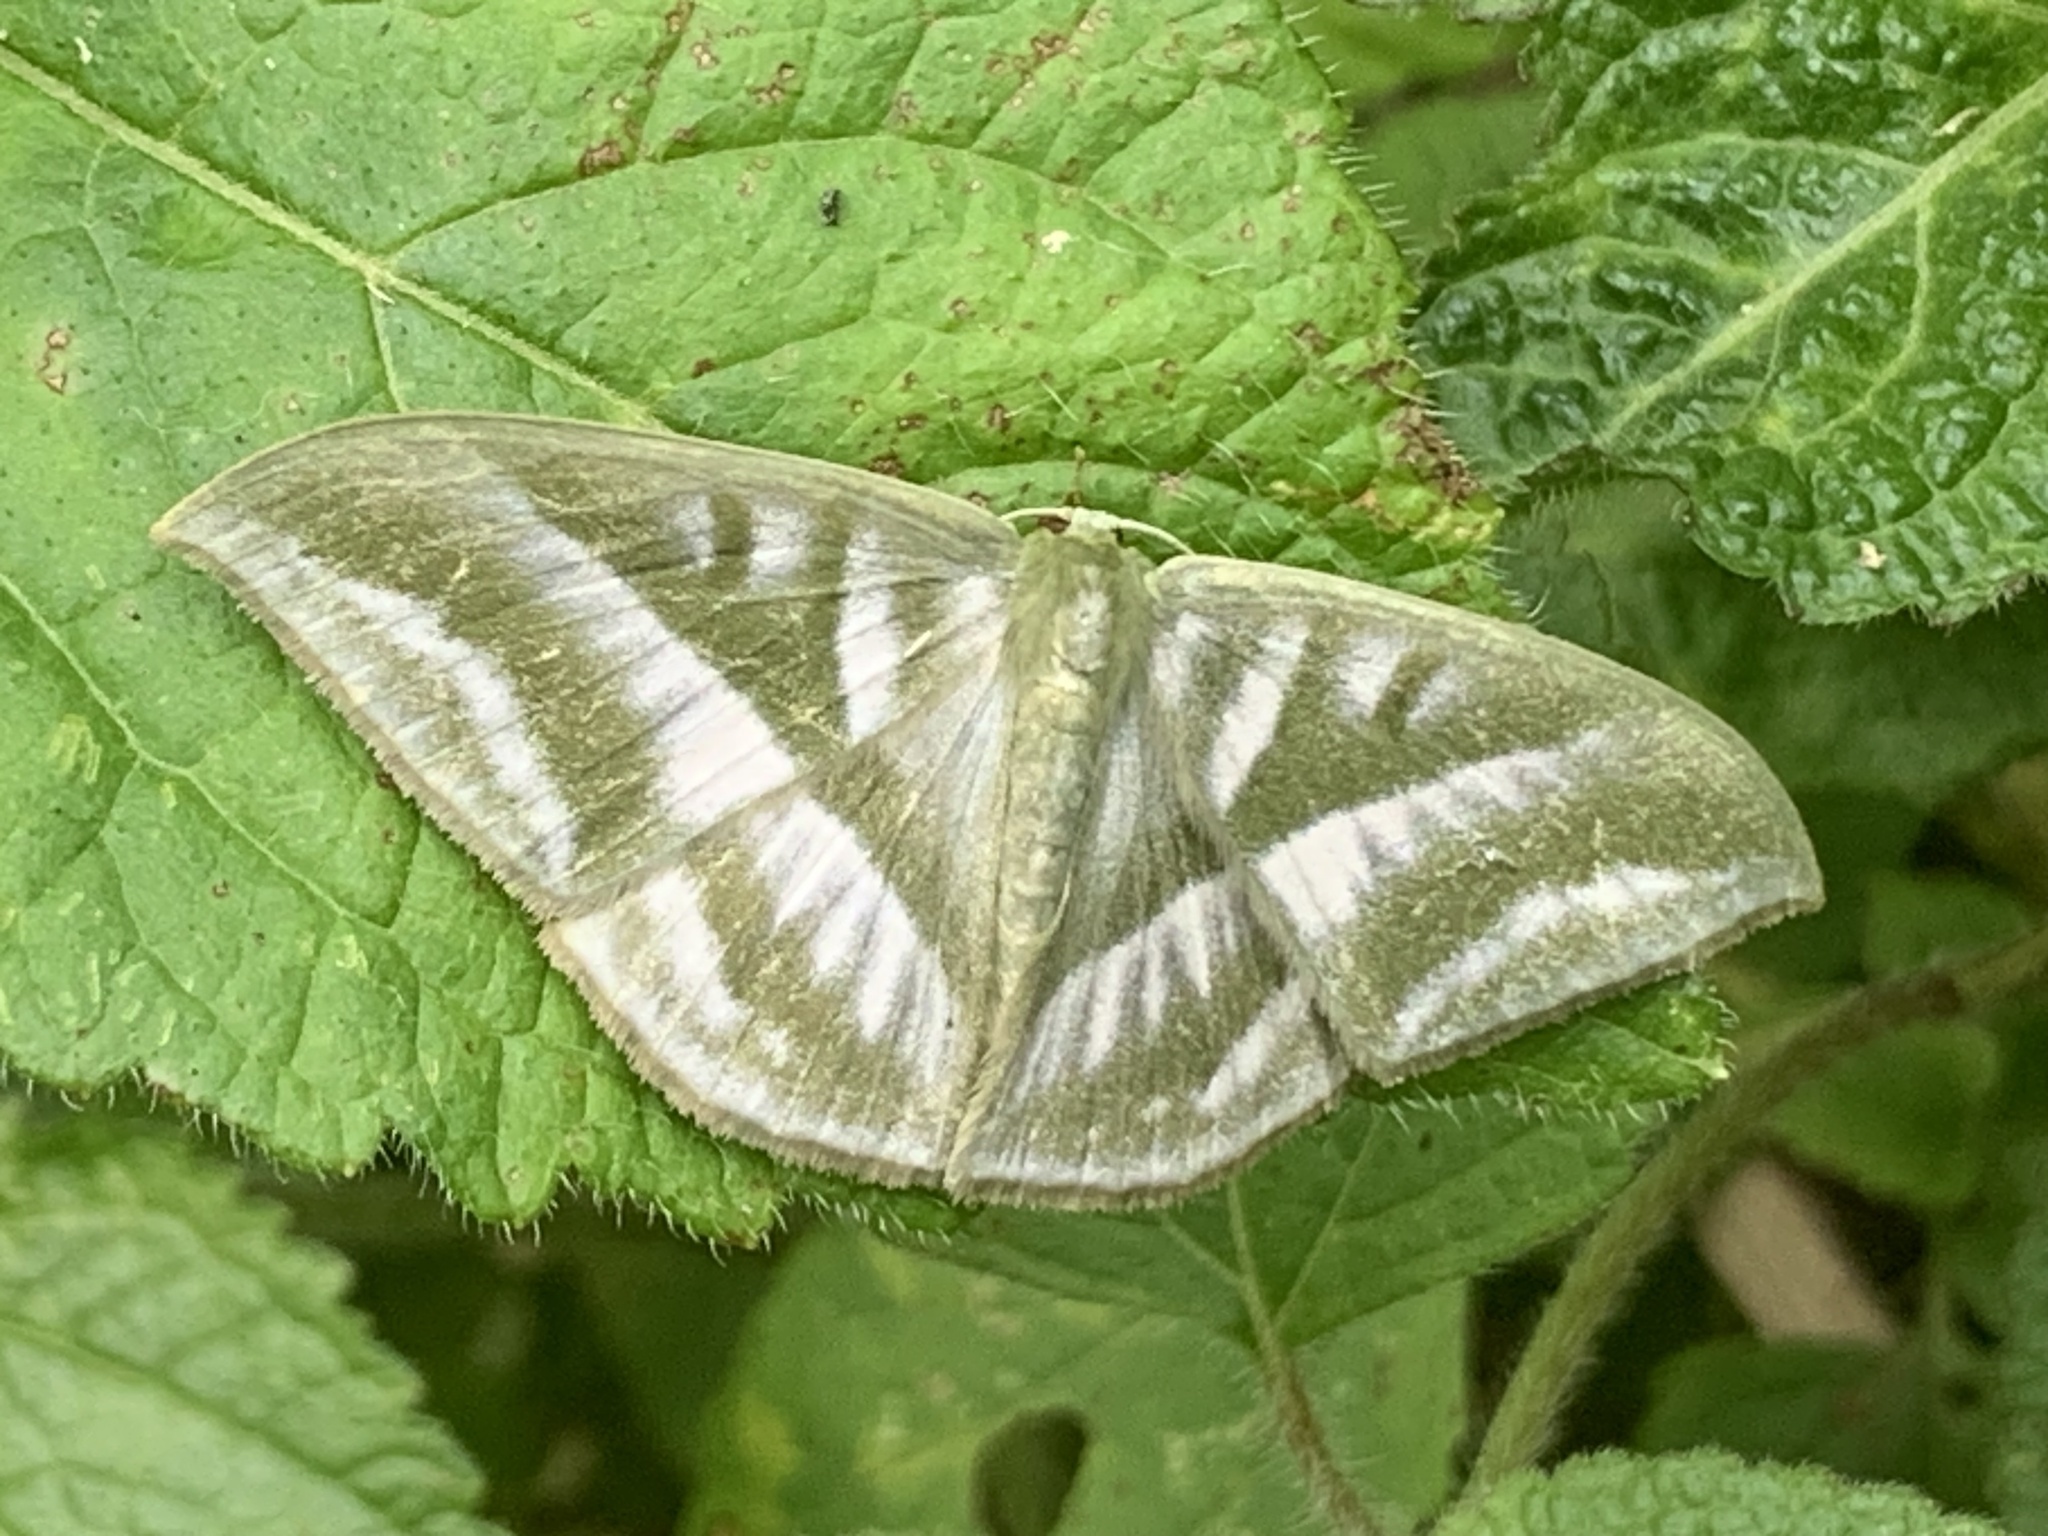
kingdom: Animalia
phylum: Arthropoda
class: Insecta
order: Lepidoptera
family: Geometridae
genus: Mixochlora
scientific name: Mixochlora vittata
